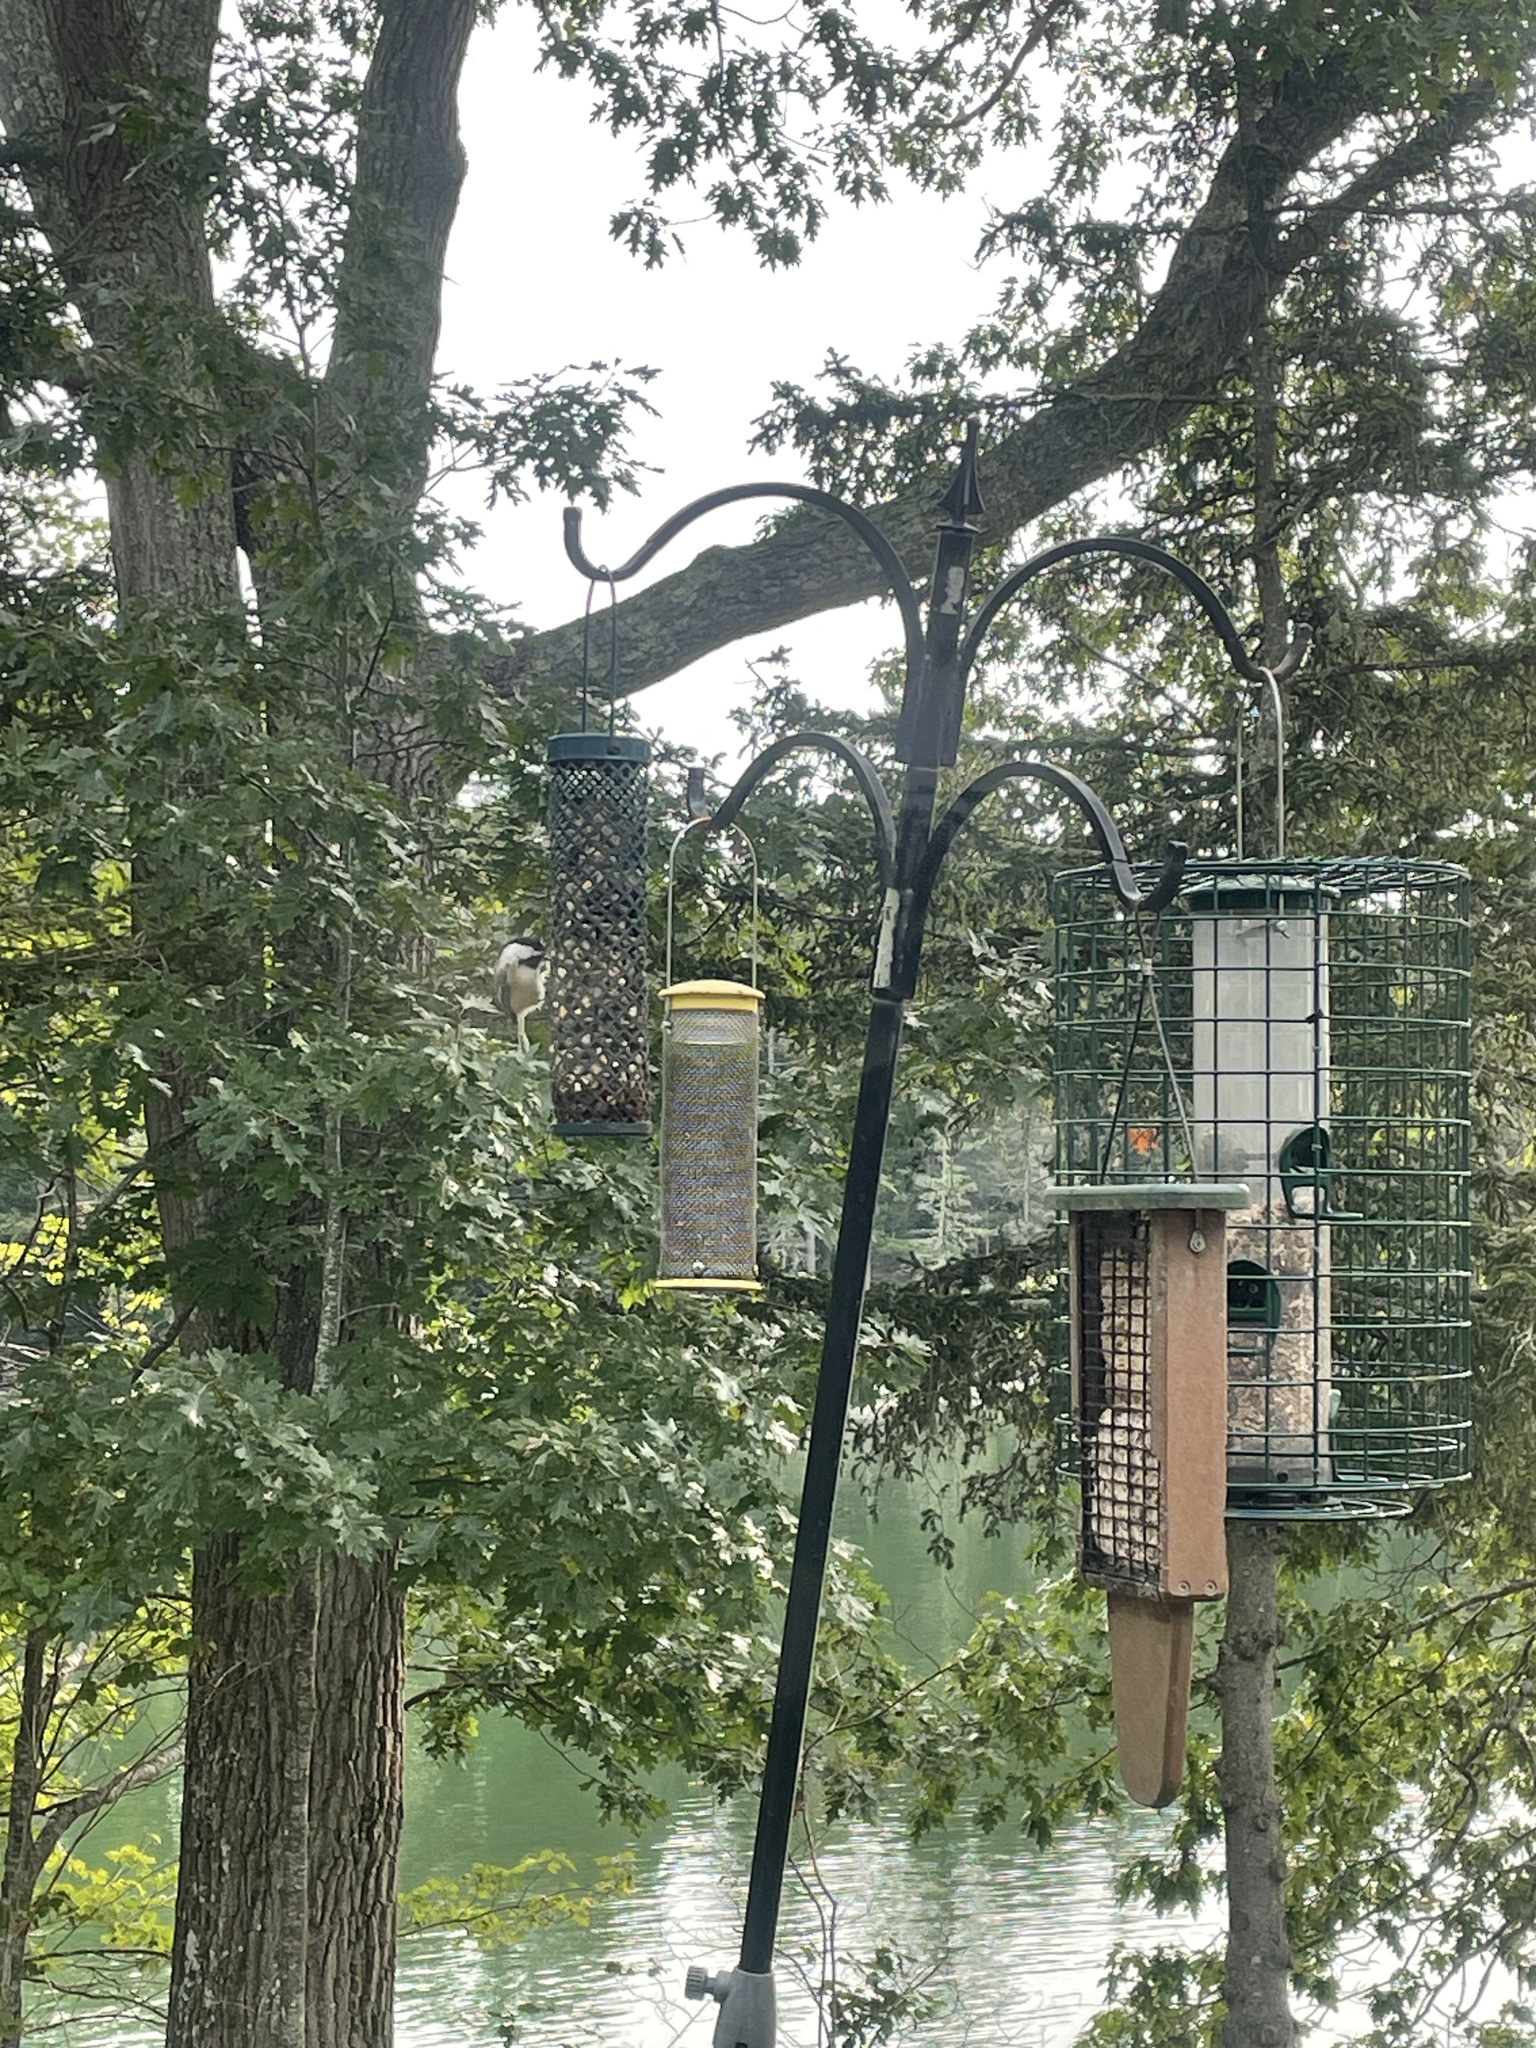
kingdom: Animalia
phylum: Chordata
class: Aves
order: Passeriformes
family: Paridae
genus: Poecile
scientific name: Poecile atricapillus
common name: Black-capped chickadee
